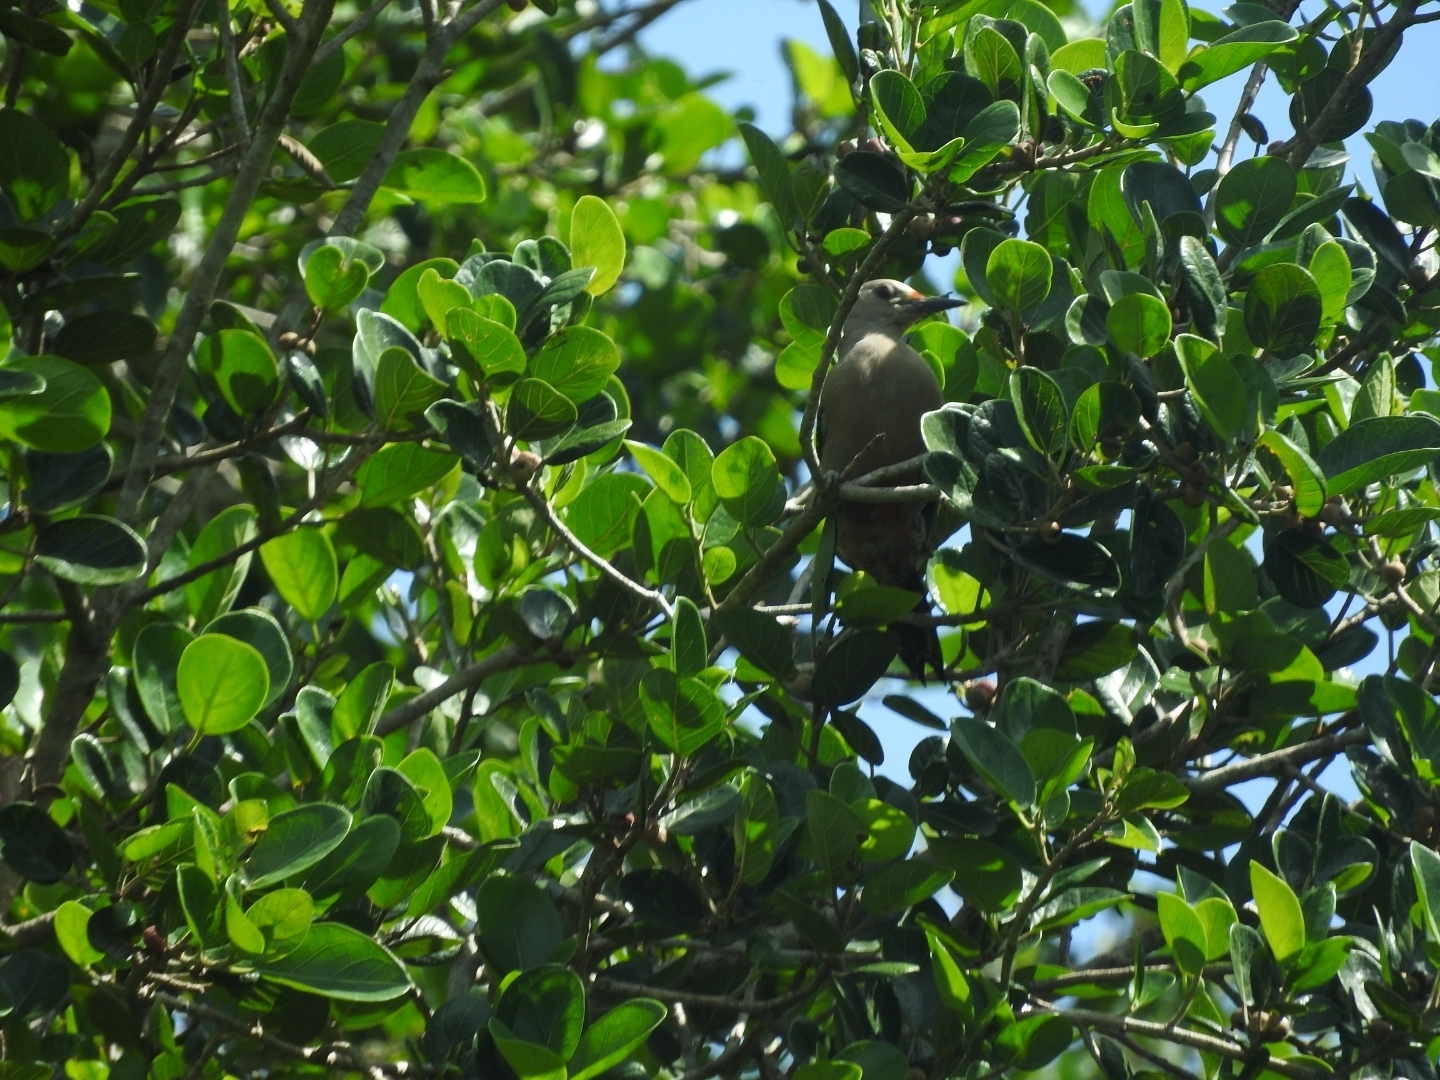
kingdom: Animalia
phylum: Chordata
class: Aves
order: Piciformes
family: Picidae
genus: Melanerpes
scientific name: Melanerpes aurifrons
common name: Golden-fronted woodpecker
